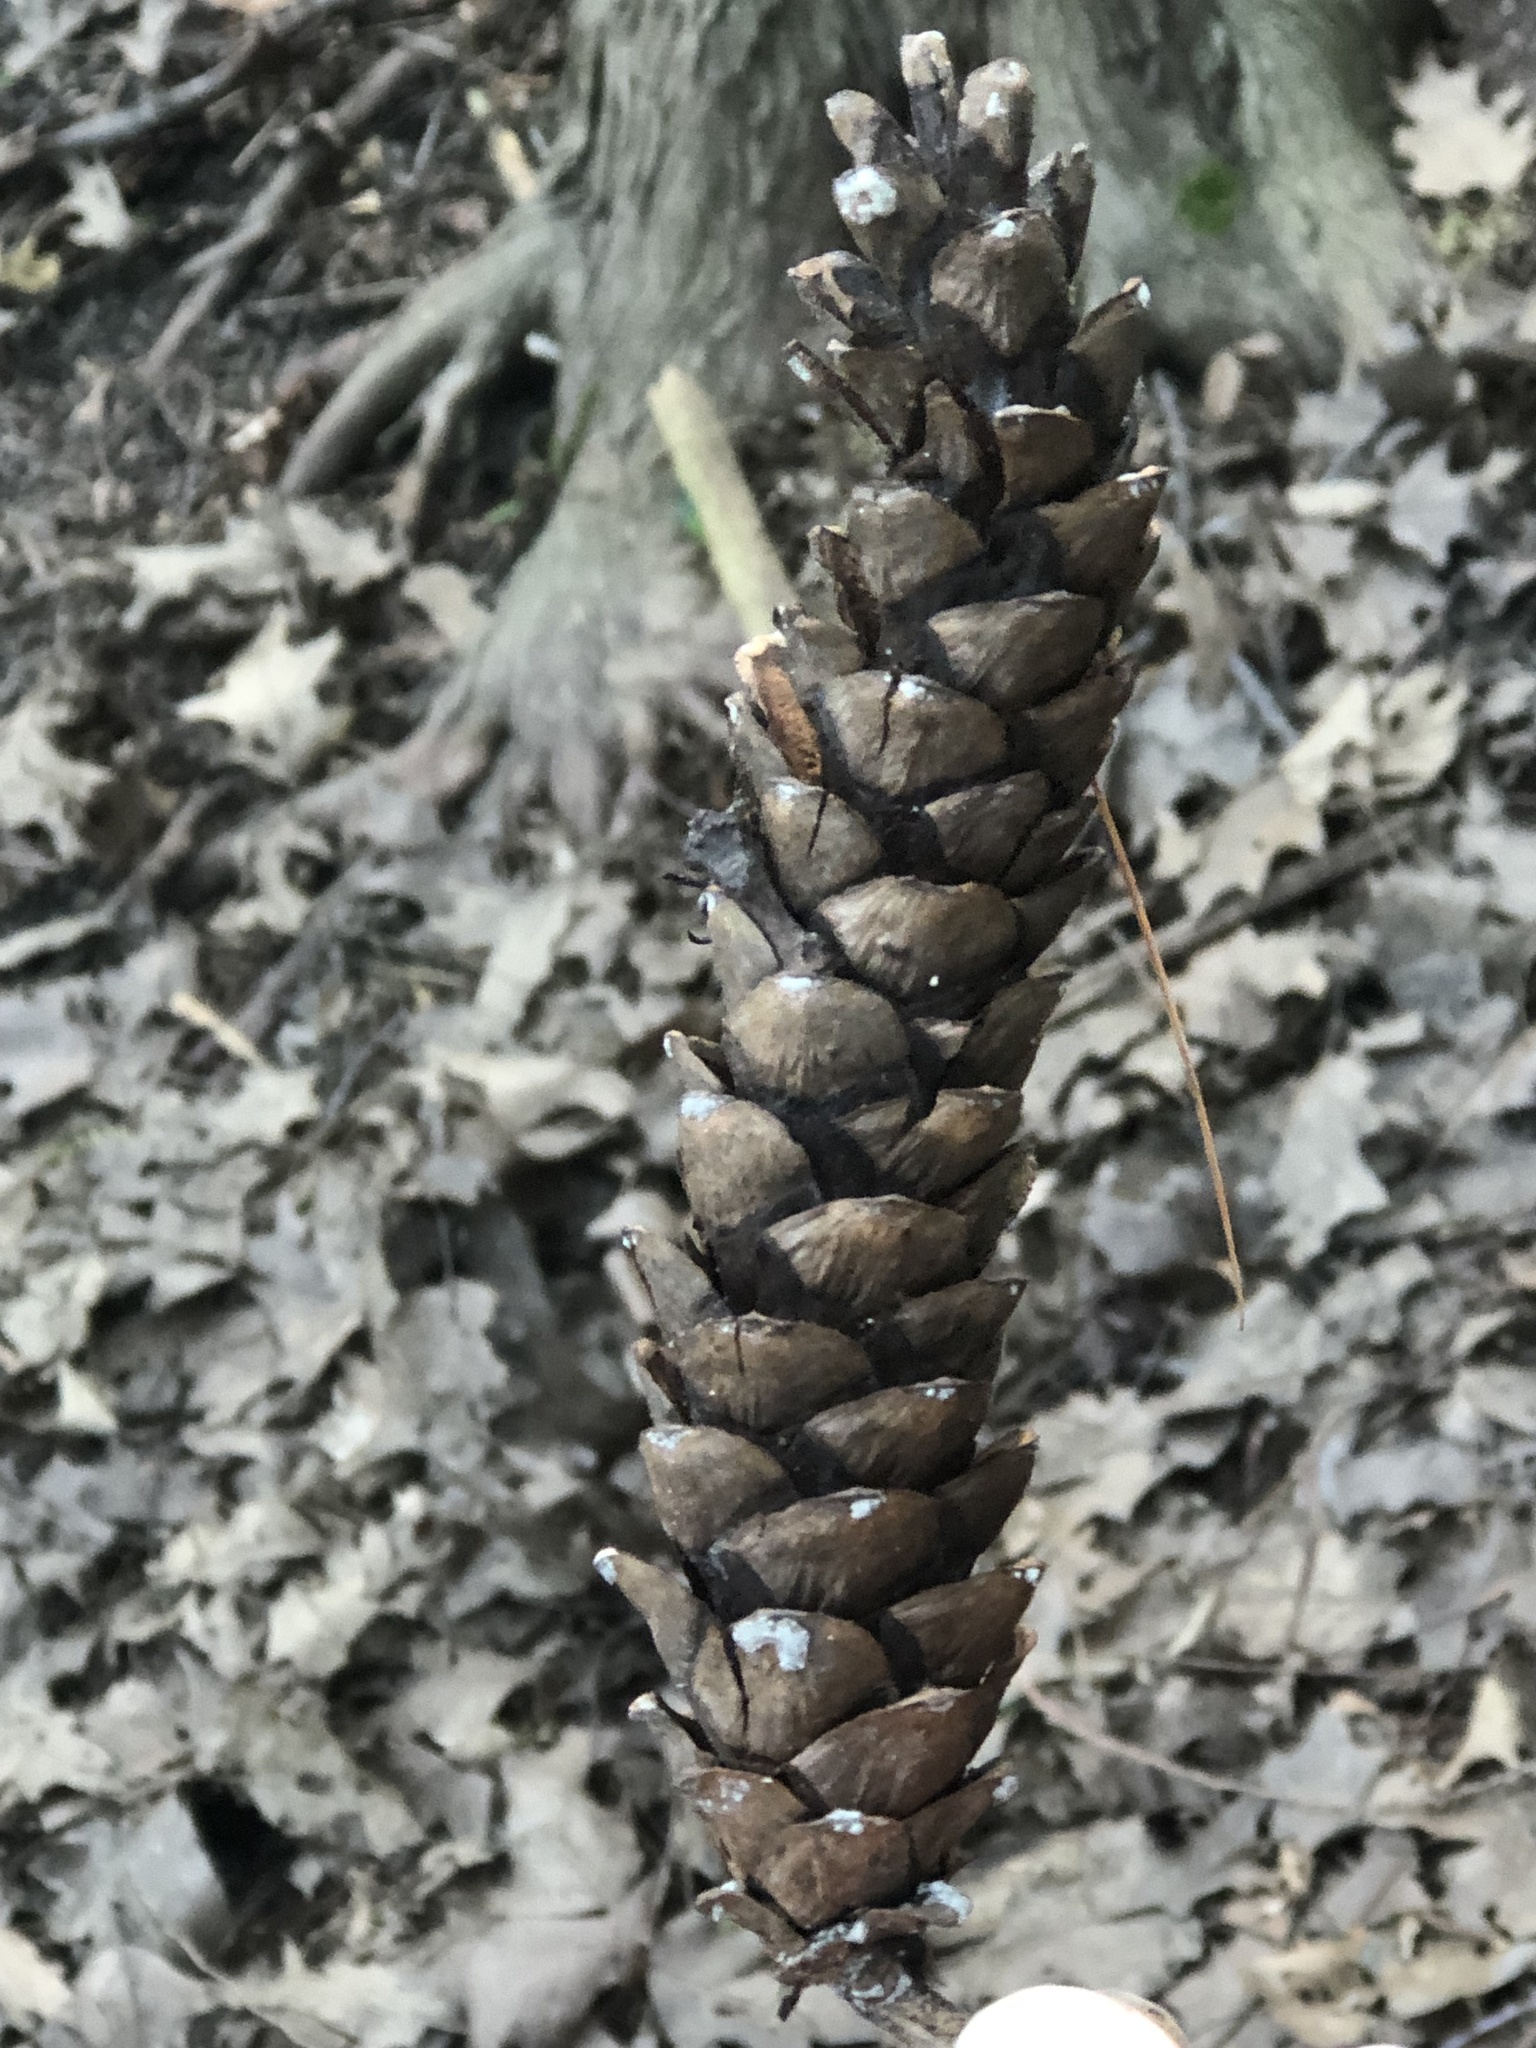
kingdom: Plantae
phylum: Tracheophyta
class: Pinopsida
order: Pinales
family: Pinaceae
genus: Pinus
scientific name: Pinus strobus
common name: Weymouth pine
